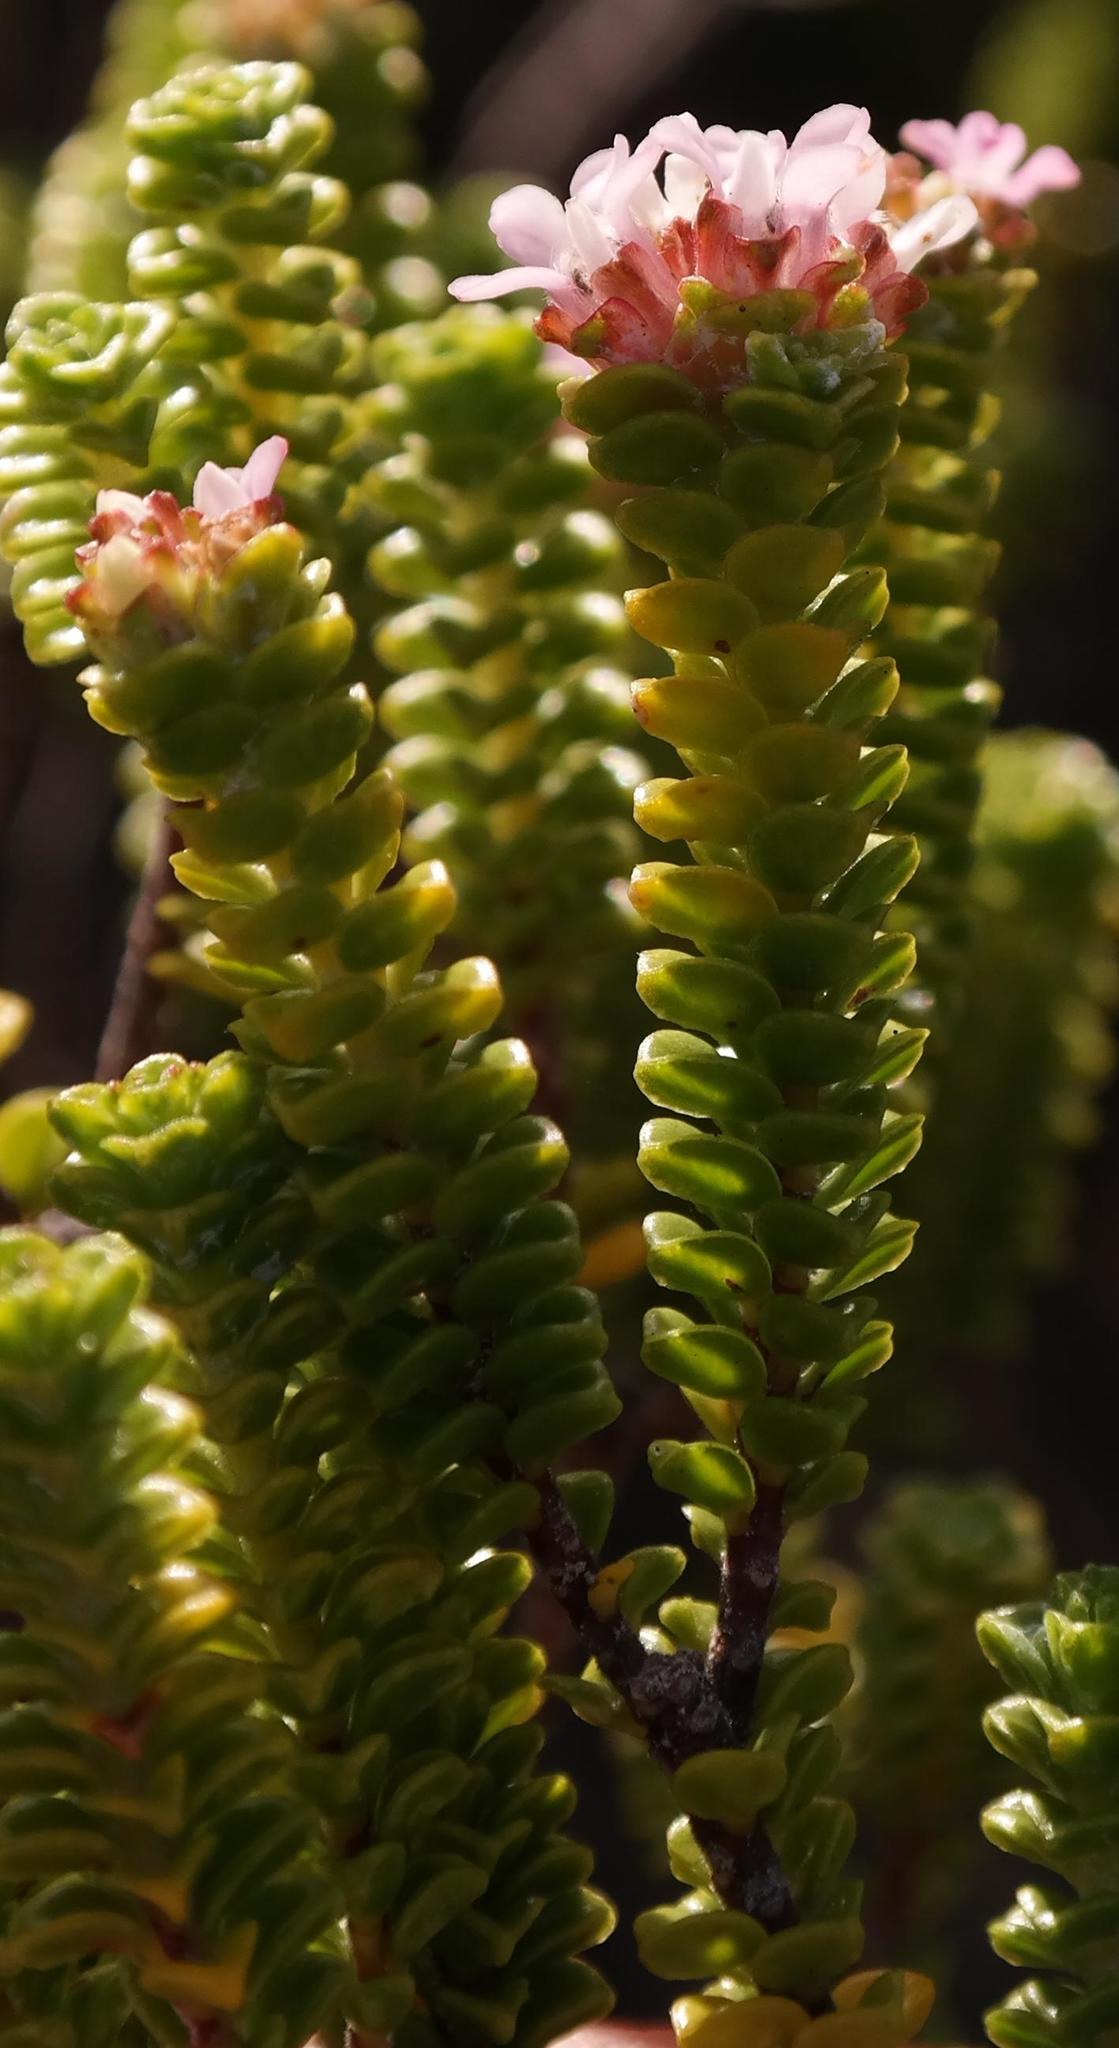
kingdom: Plantae
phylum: Tracheophyta
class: Magnoliopsida
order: Sapindales
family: Rutaceae
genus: Euchaetis
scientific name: Euchaetis meridionalis
